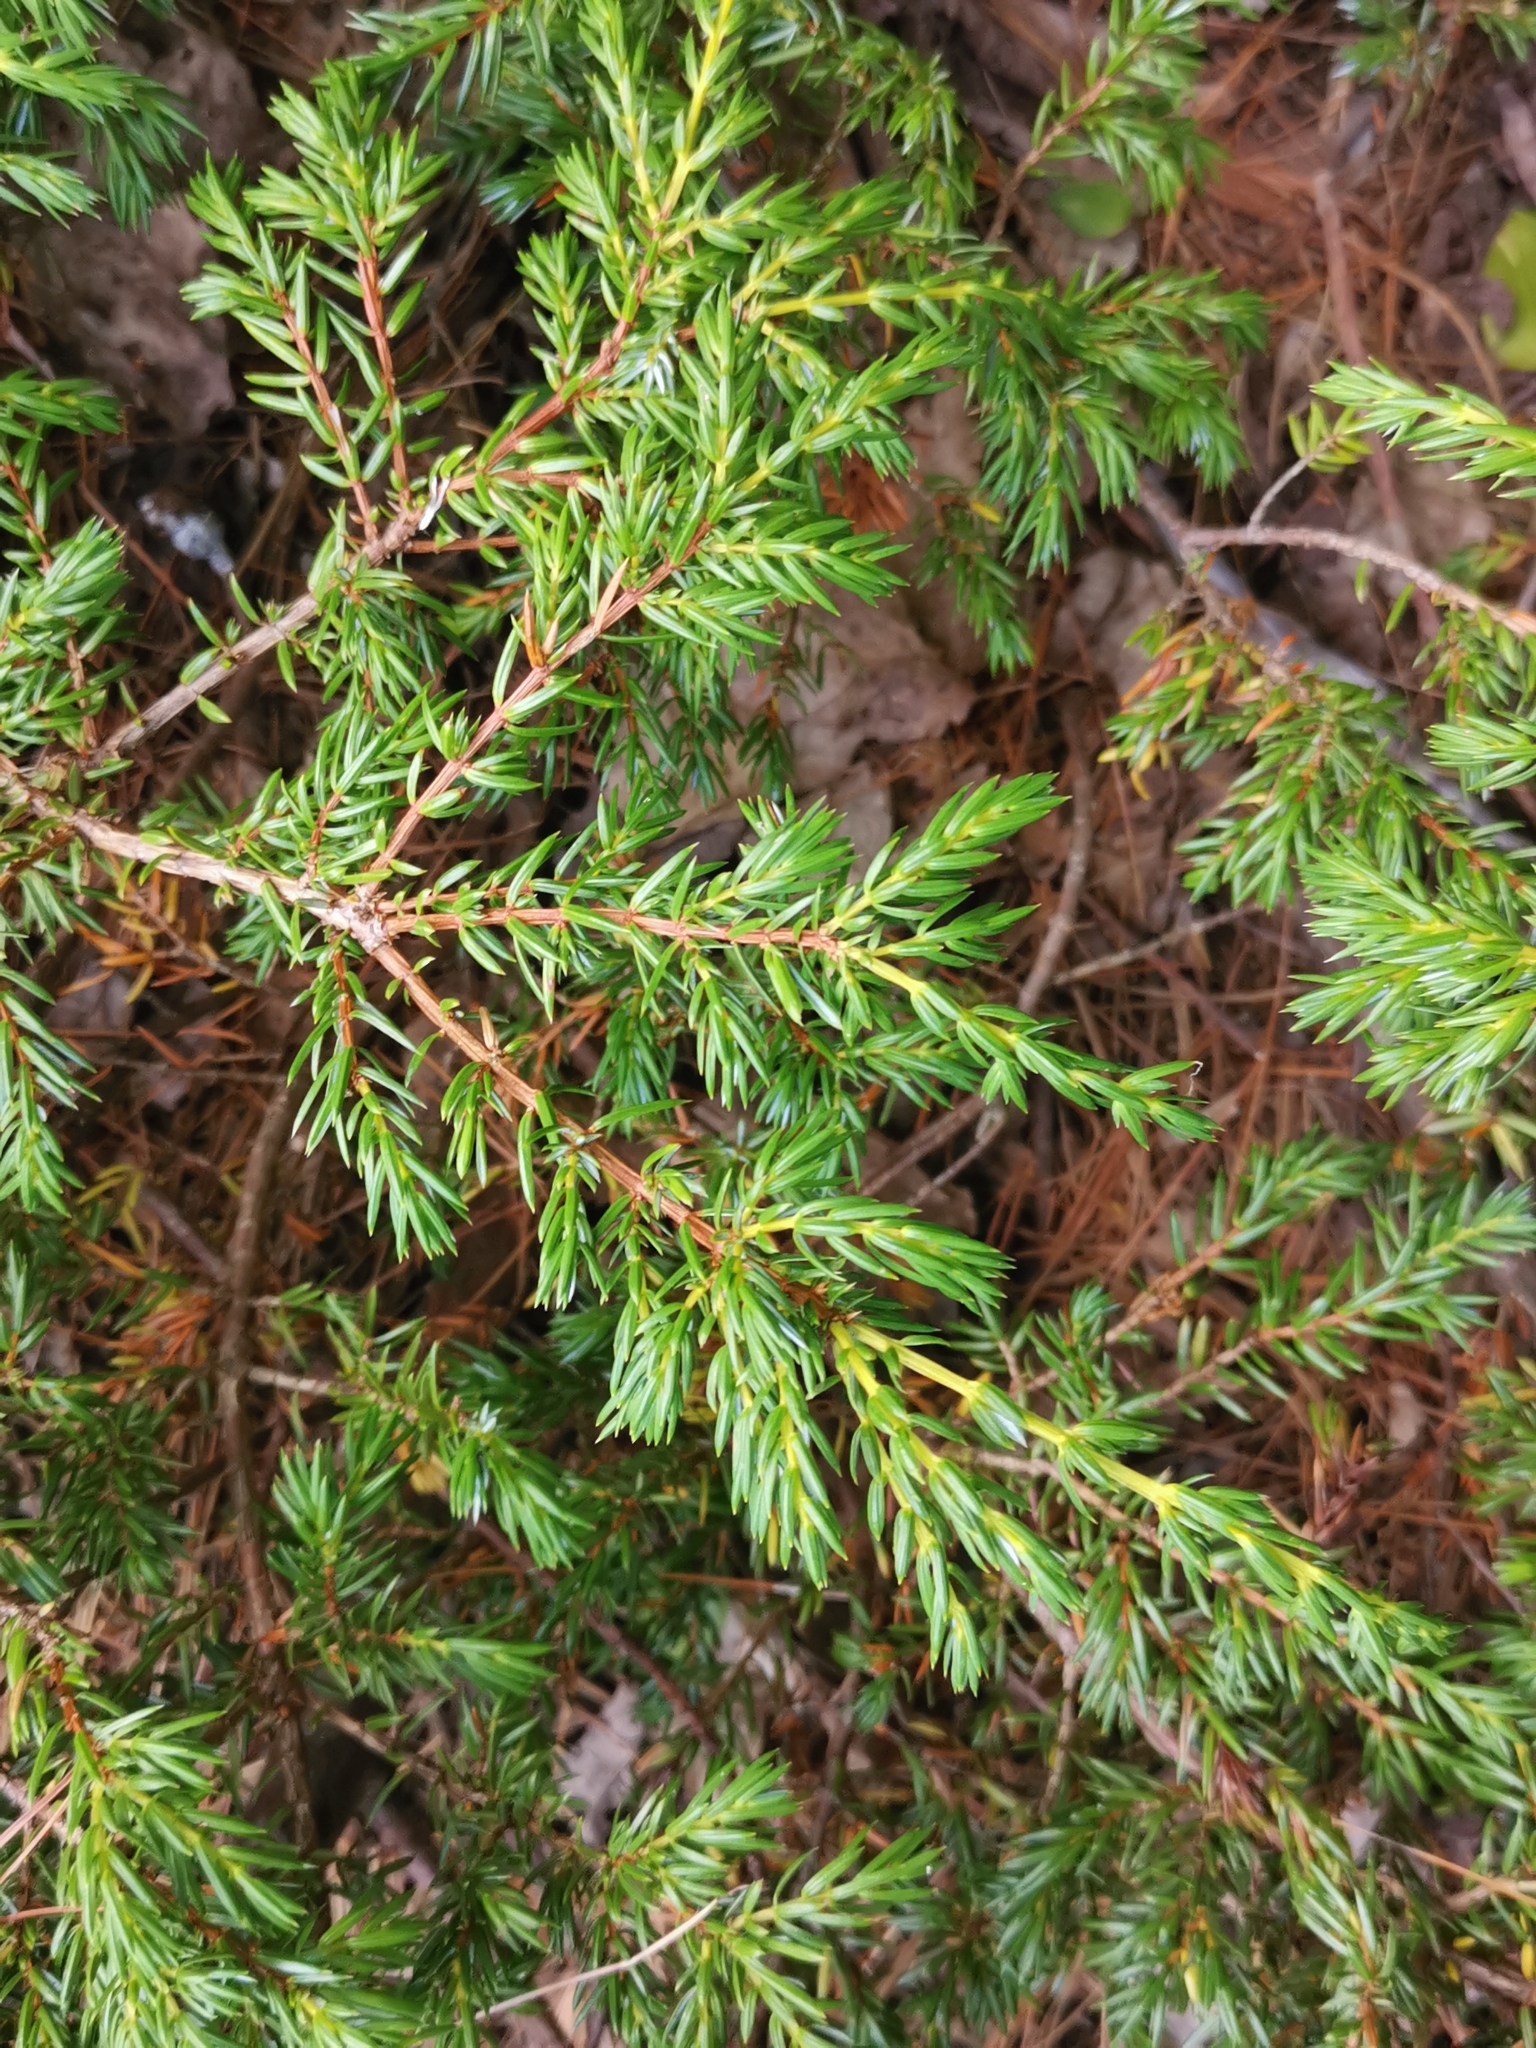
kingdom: Plantae
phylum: Tracheophyta
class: Pinopsida
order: Pinales
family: Cupressaceae
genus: Juniperus
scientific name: Juniperus communis
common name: Common juniper
